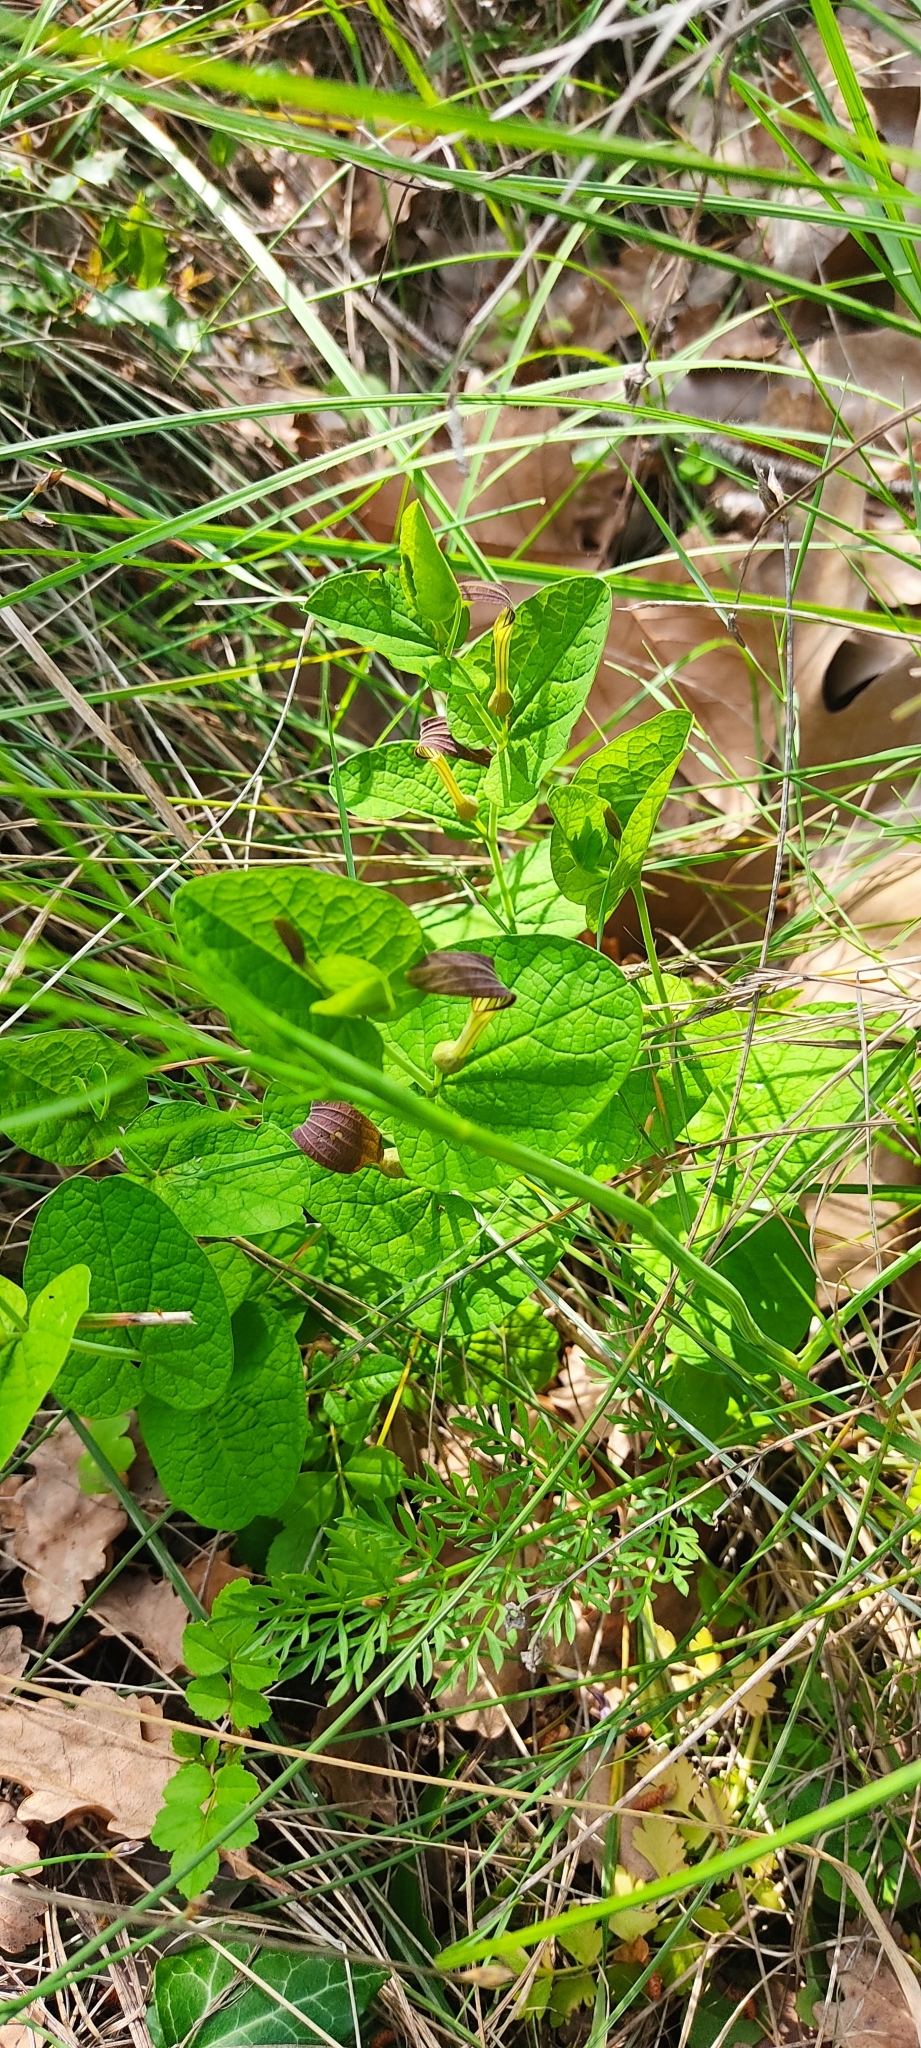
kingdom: Plantae
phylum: Tracheophyta
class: Magnoliopsida
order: Piperales
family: Aristolochiaceae
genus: Aristolochia
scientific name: Aristolochia rotunda
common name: Smearwort
